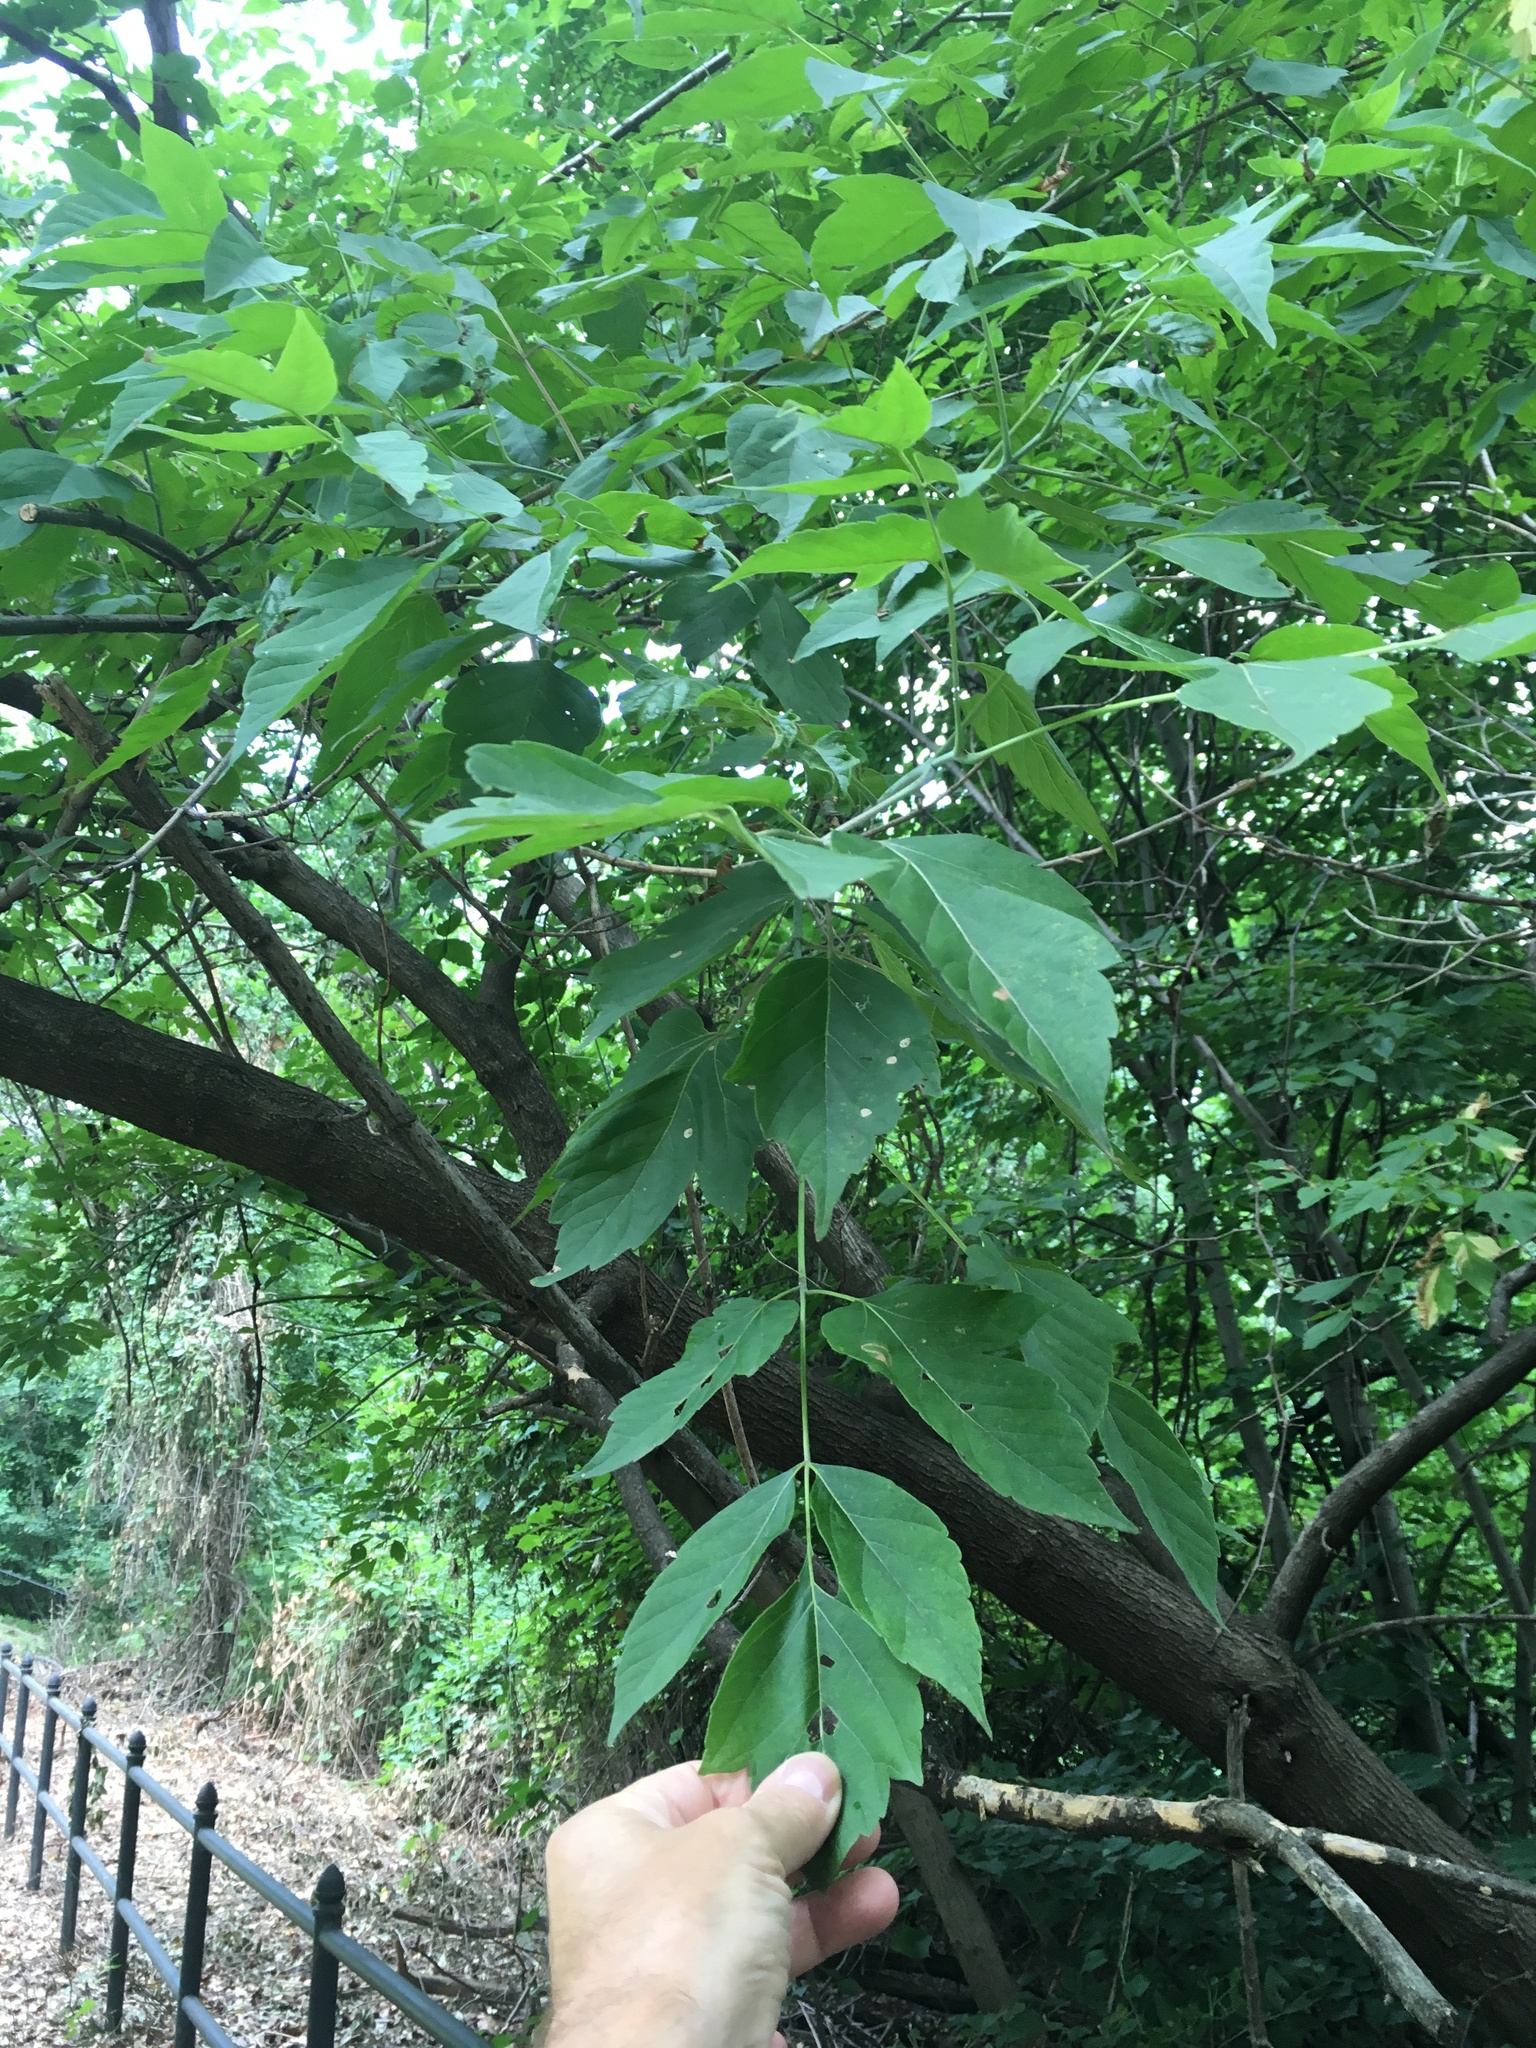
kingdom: Plantae
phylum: Tracheophyta
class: Magnoliopsida
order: Sapindales
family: Sapindaceae
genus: Acer
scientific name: Acer negundo
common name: Ashleaf maple
